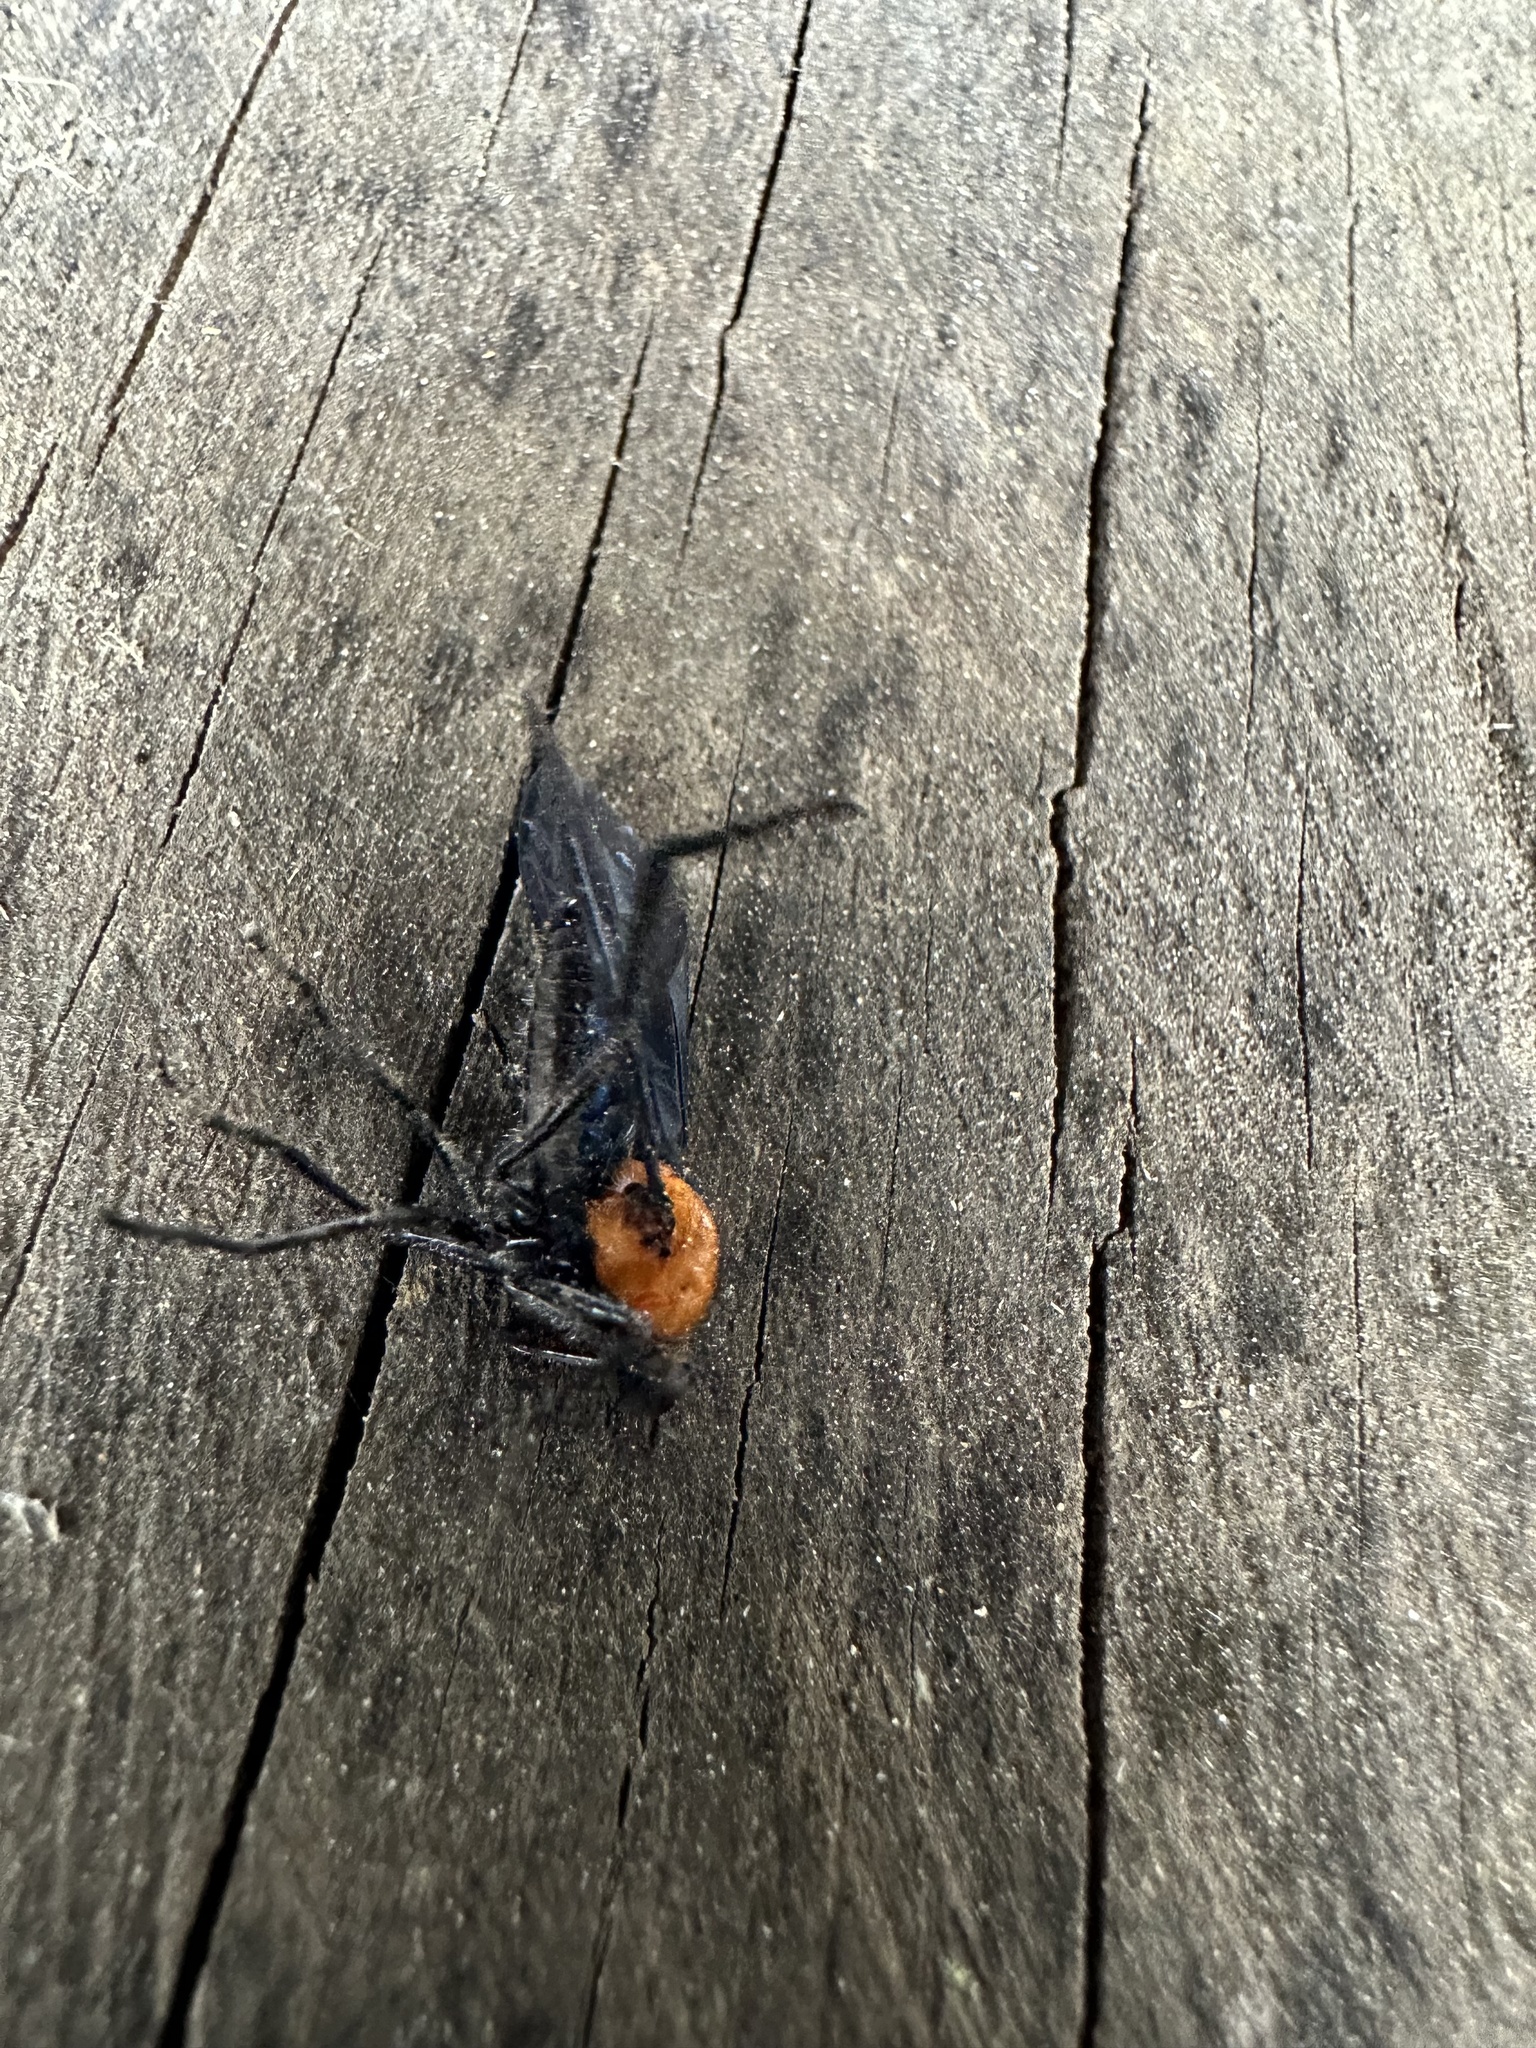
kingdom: Animalia
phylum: Arthropoda
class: Insecta
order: Diptera
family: Empididae
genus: Allochrotus
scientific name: Allochrotus poecilus
